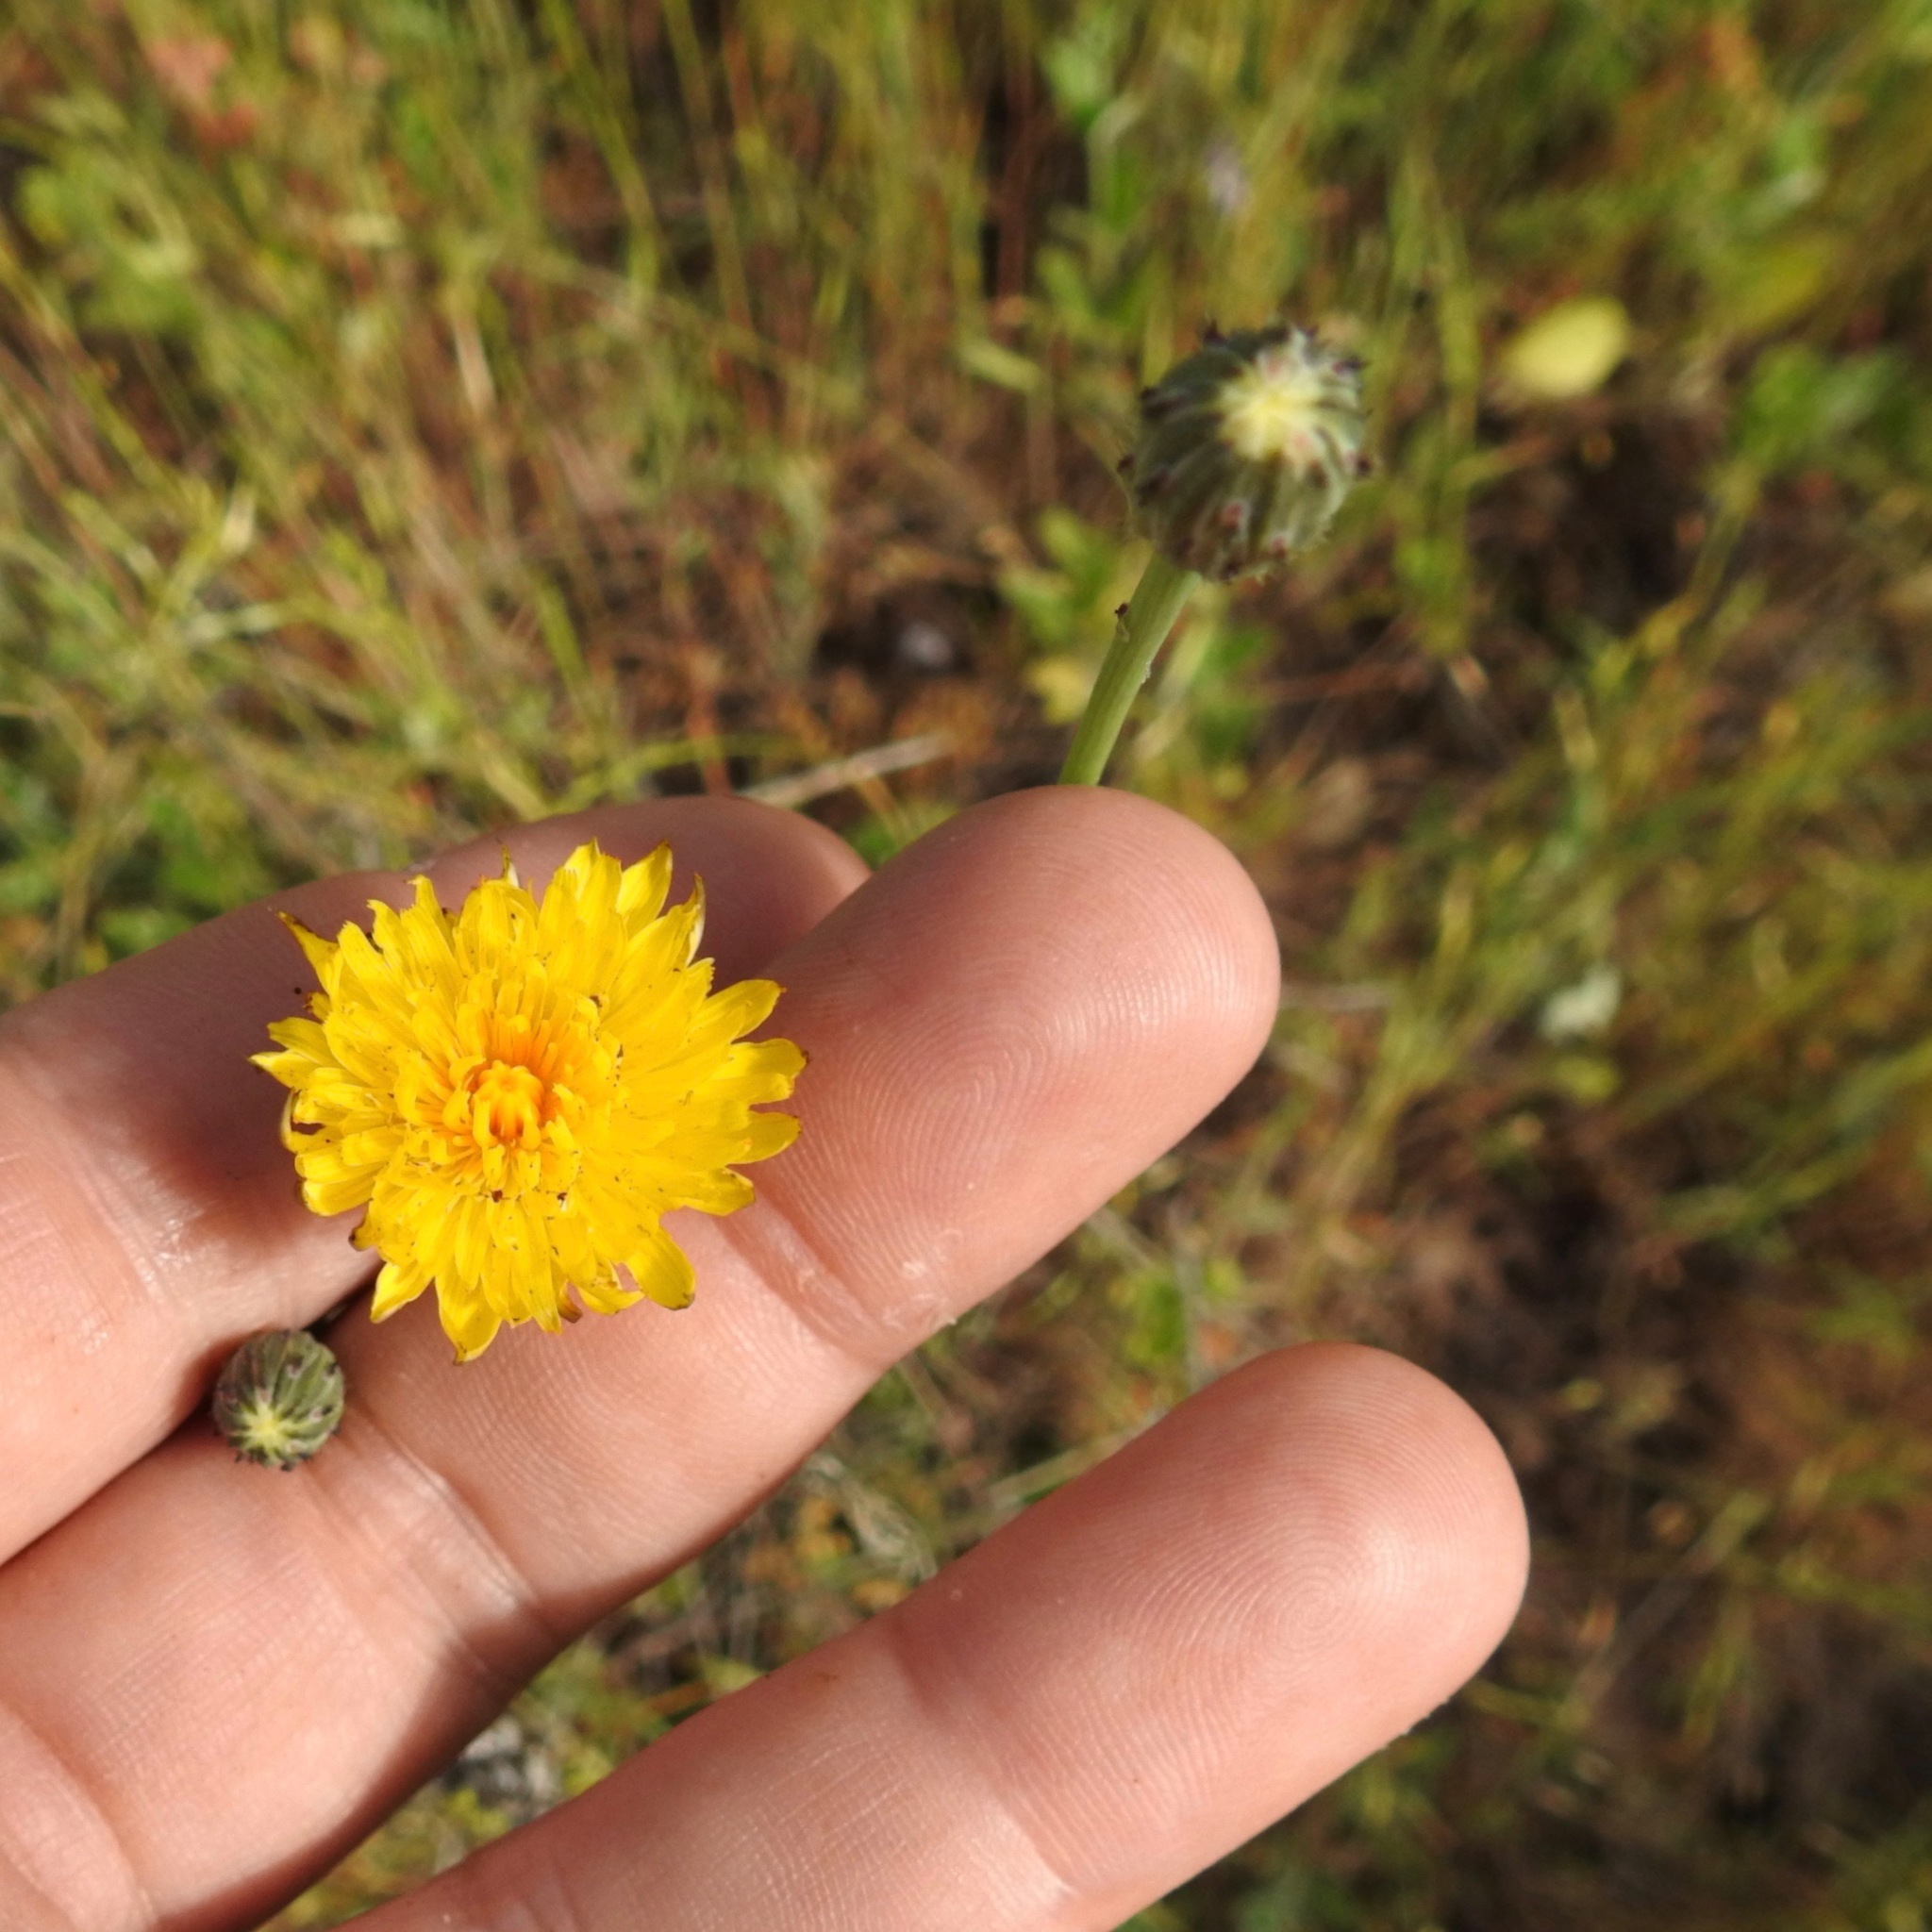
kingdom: Plantae
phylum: Tracheophyta
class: Magnoliopsida
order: Asterales
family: Asteraceae
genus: Hypochaeris
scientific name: Hypochaeris glabra
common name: Smooth catsear
